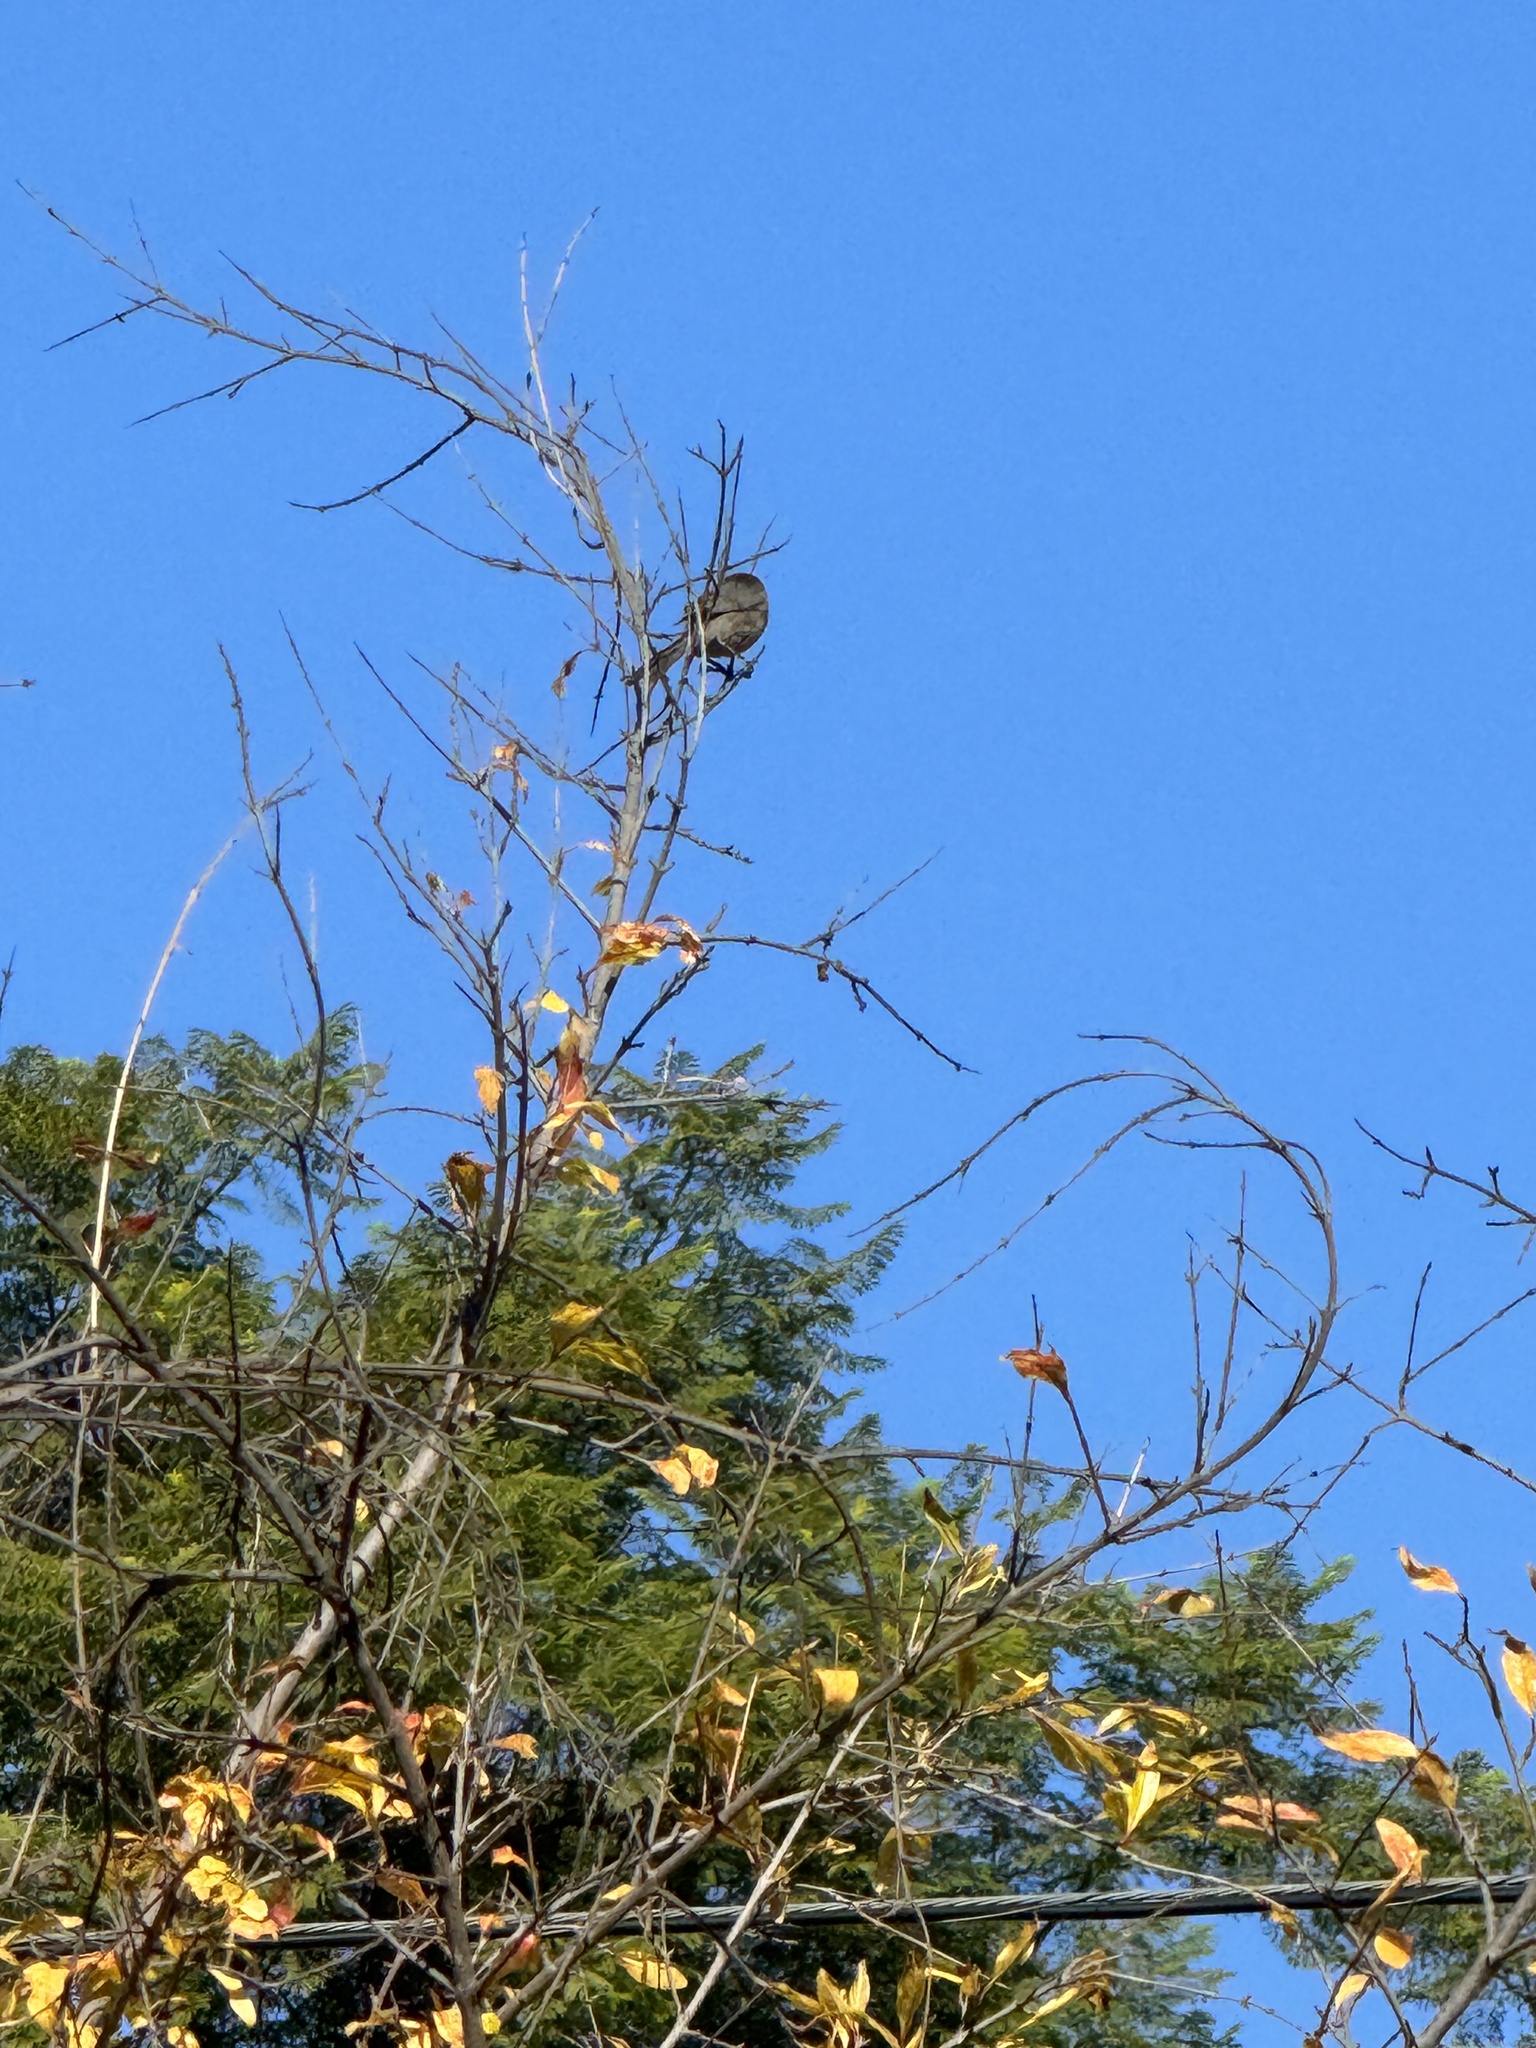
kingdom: Animalia
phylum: Chordata
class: Aves
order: Passeriformes
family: Aegithalidae
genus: Psaltriparus
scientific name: Psaltriparus minimus
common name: American bushtit
